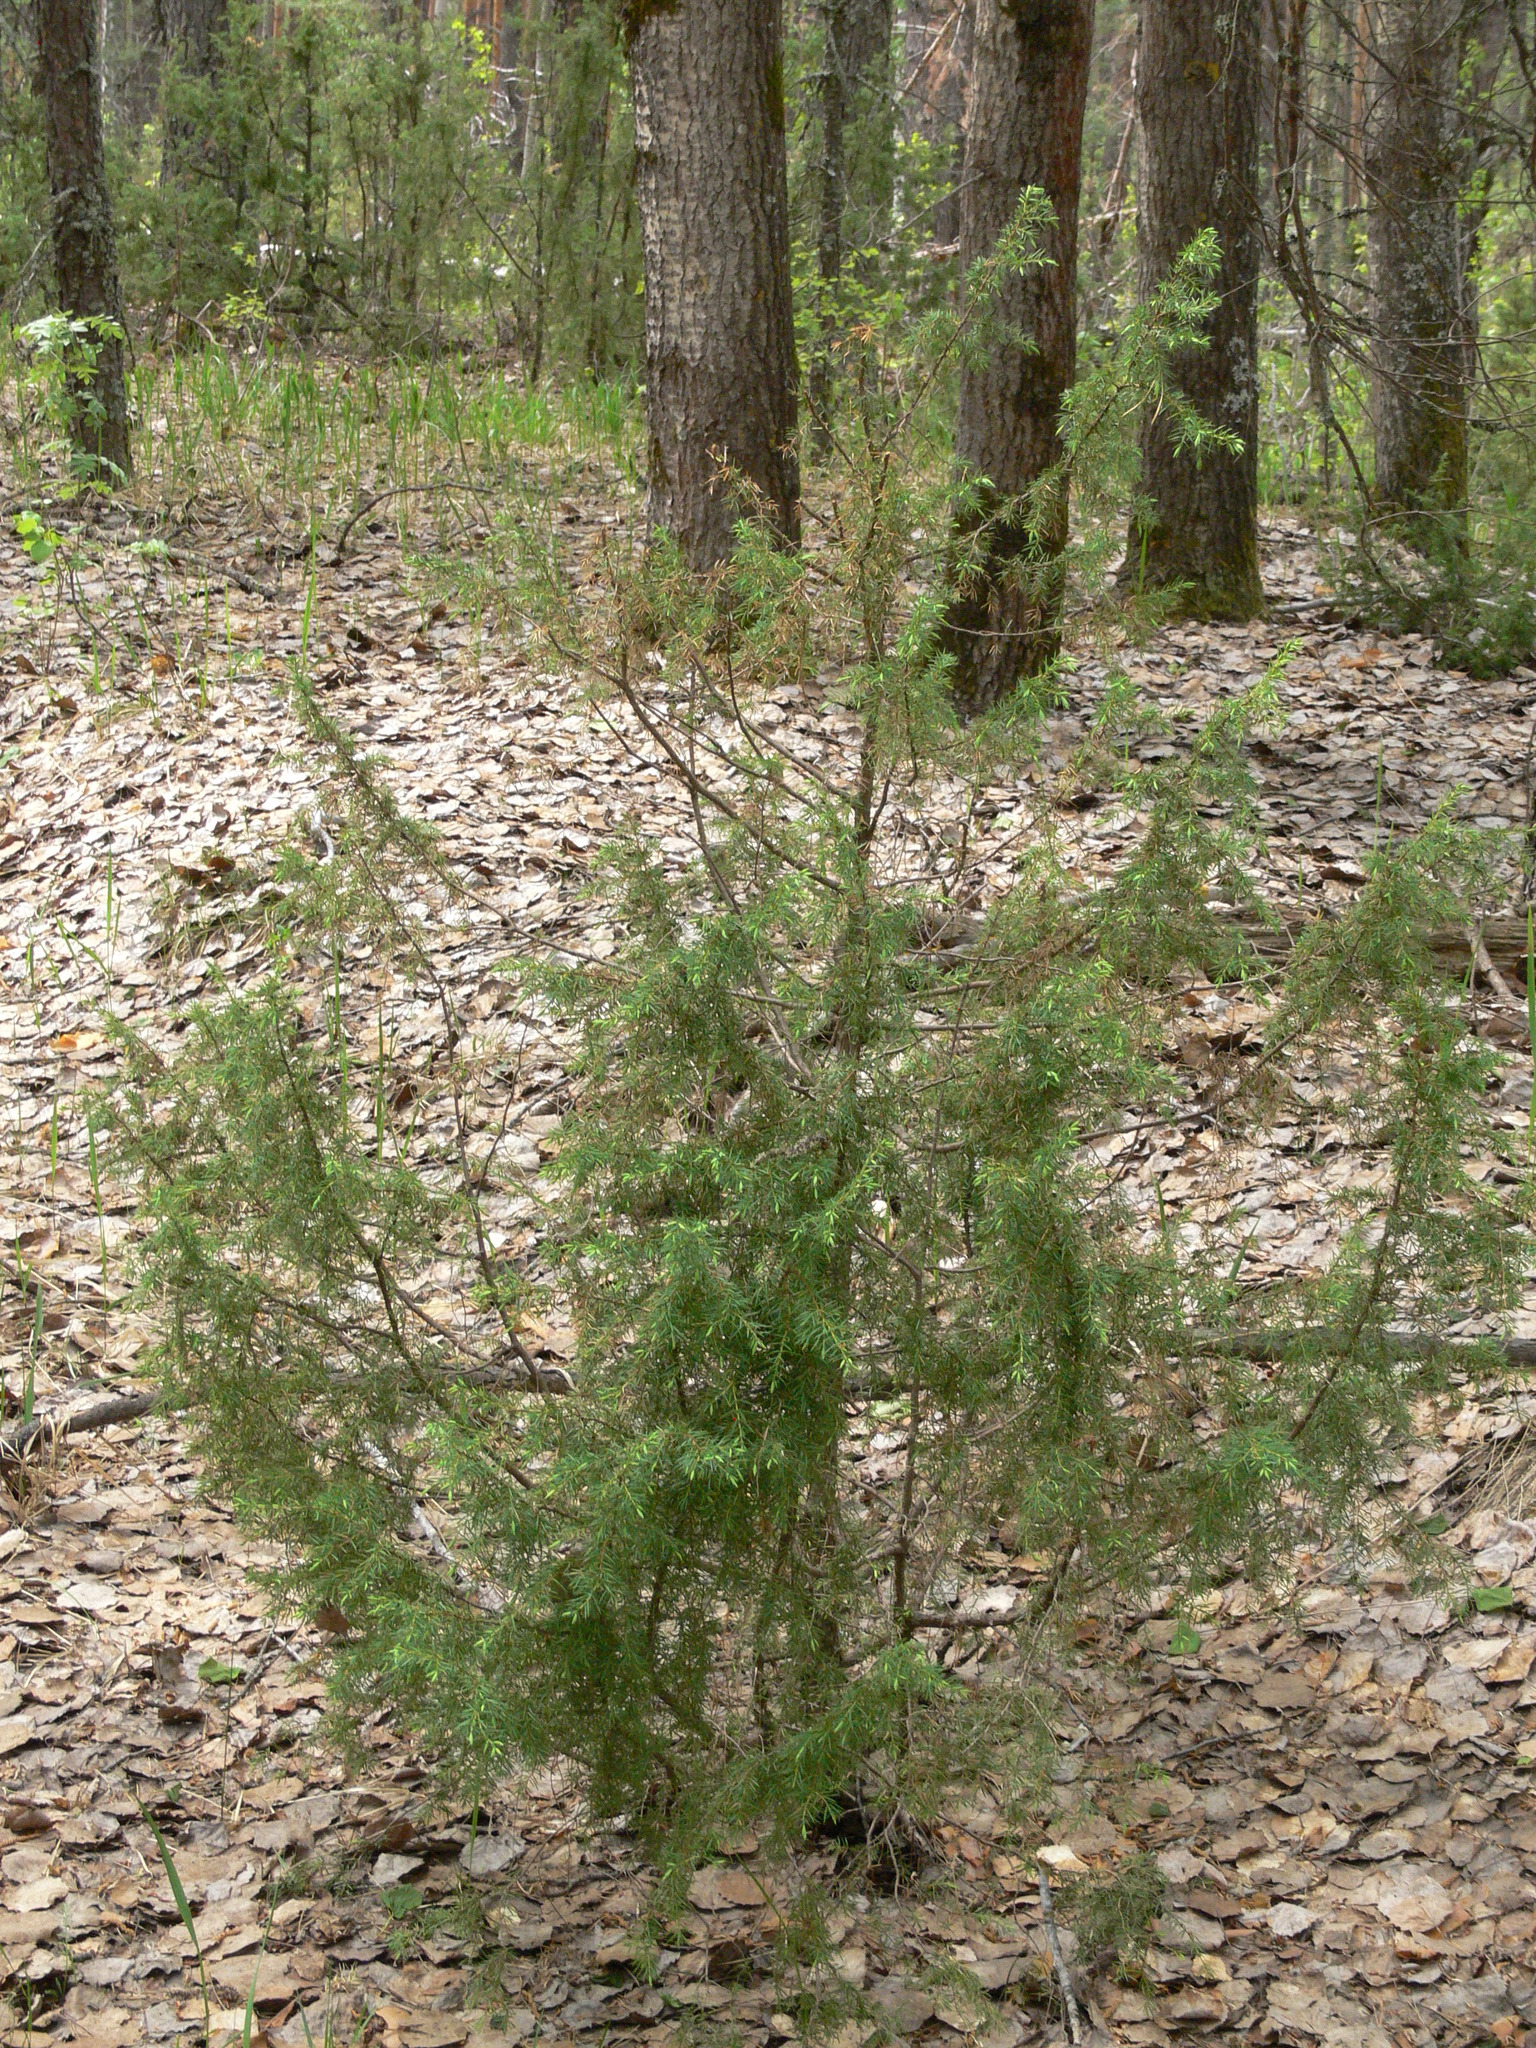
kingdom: Plantae
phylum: Tracheophyta
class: Pinopsida
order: Pinales
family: Cupressaceae
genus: Juniperus
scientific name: Juniperus communis
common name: Common juniper
